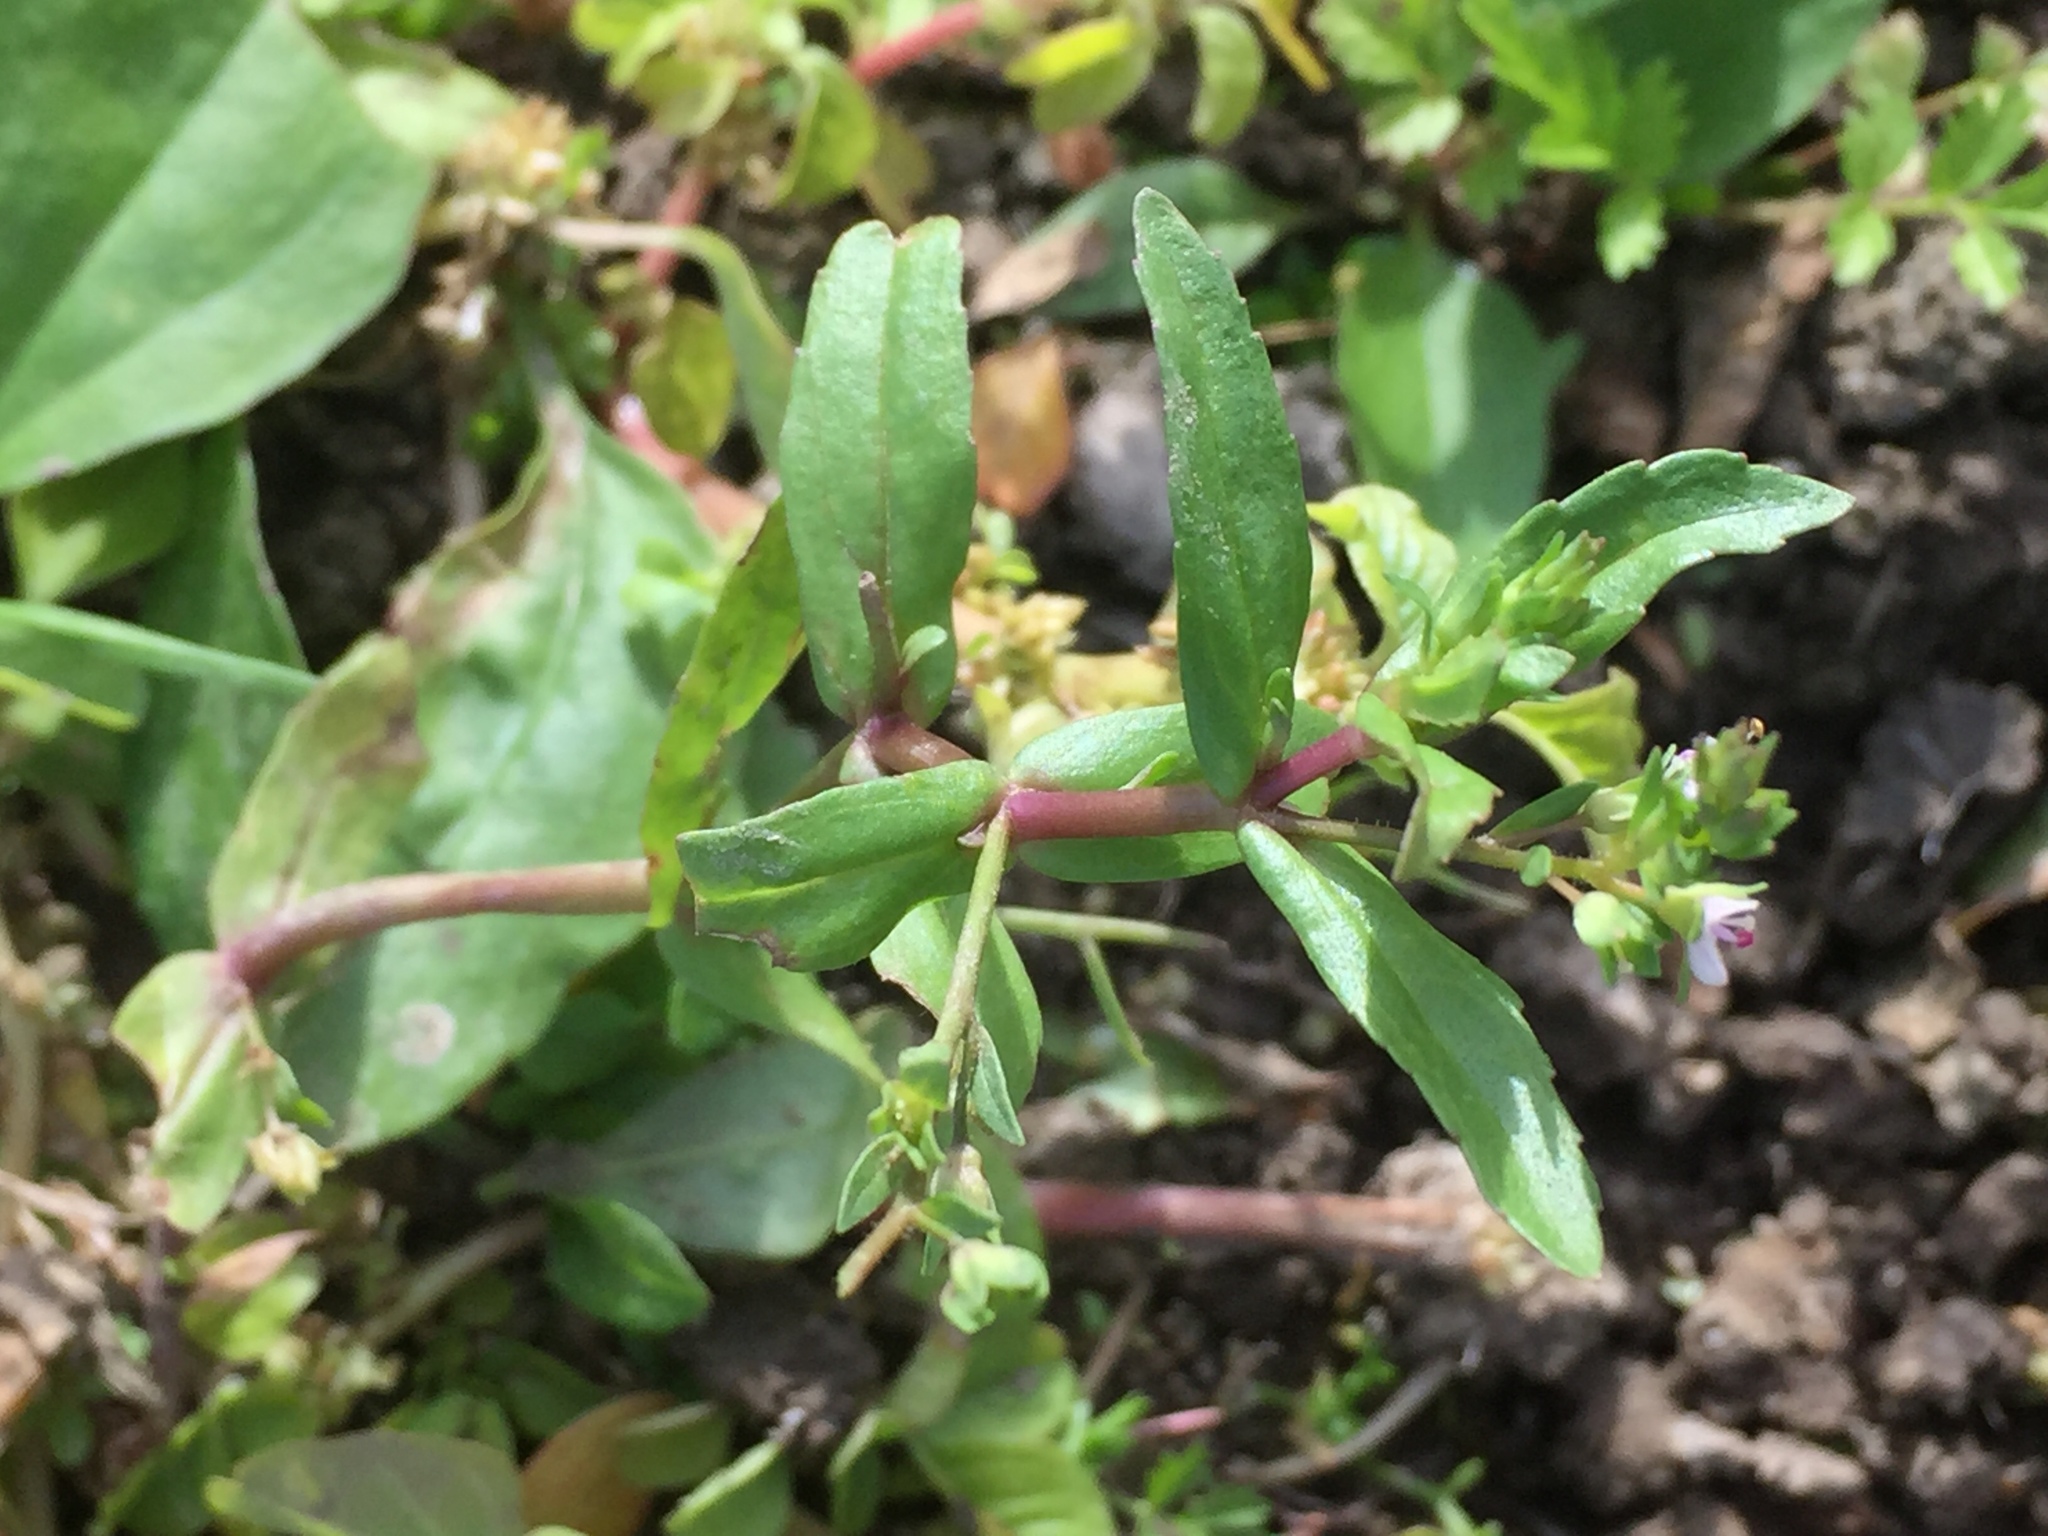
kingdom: Plantae
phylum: Tracheophyta
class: Magnoliopsida
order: Lamiales
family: Plantaginaceae
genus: Veronica
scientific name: Veronica anagallis-aquatica
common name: Water speedwell
